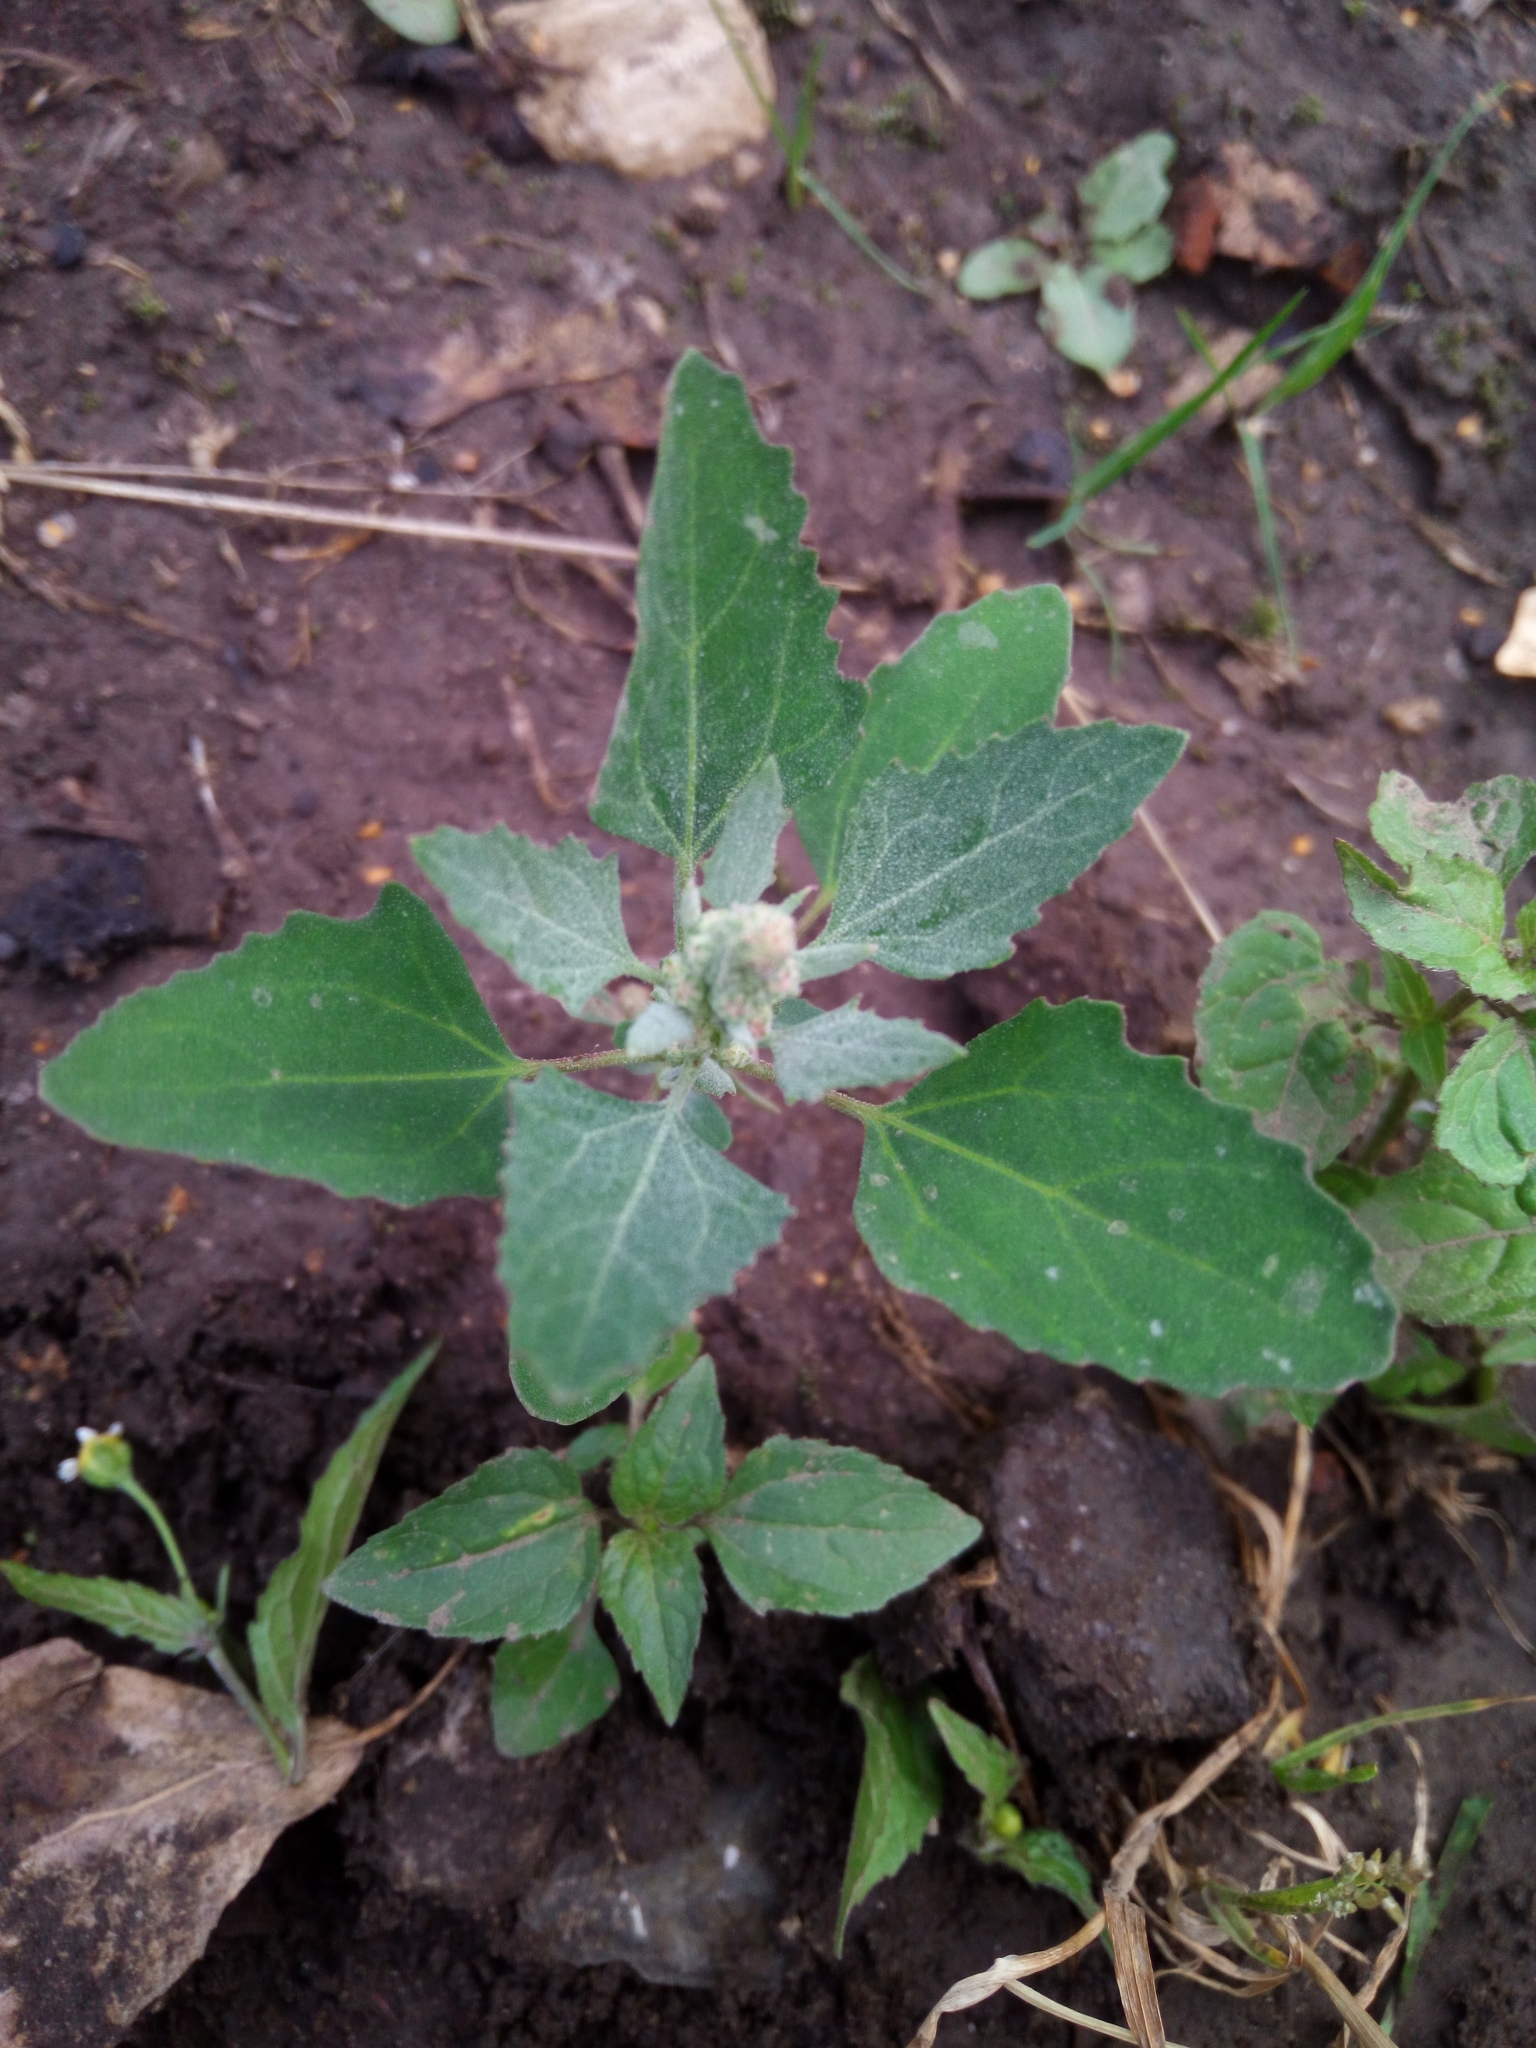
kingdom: Plantae
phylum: Tracheophyta
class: Magnoliopsida
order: Caryophyllales
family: Amaranthaceae
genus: Chenopodium
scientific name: Chenopodium album
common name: Fat-hen
